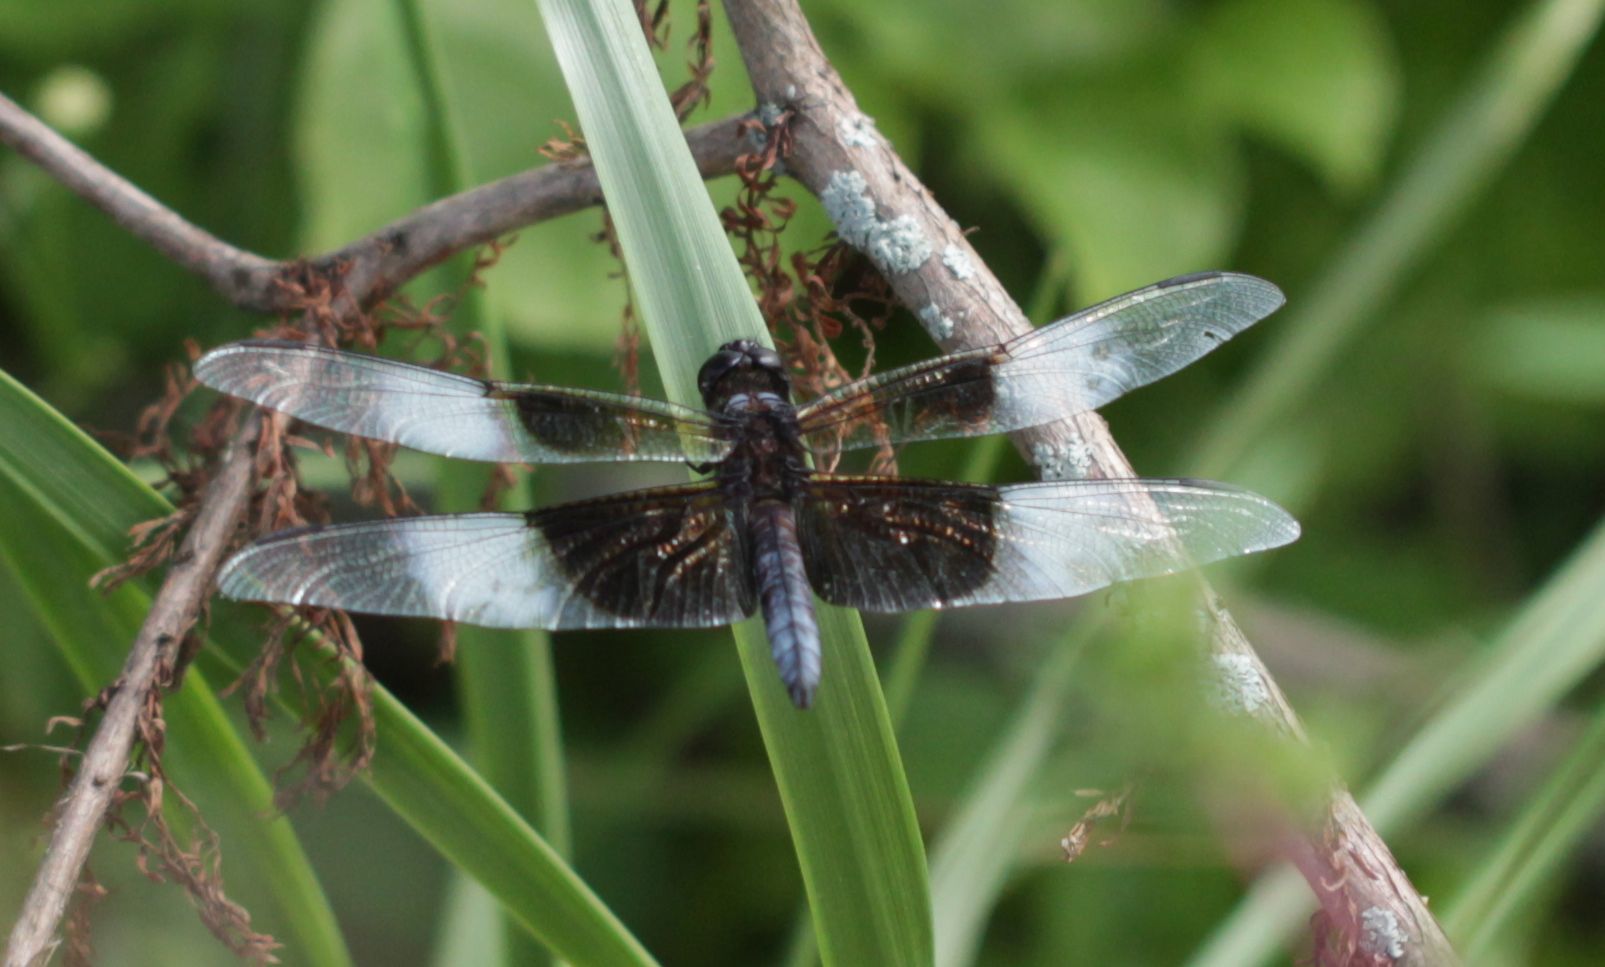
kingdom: Animalia
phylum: Arthropoda
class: Insecta
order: Odonata
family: Libellulidae
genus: Libellula
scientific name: Libellula luctuosa
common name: Widow skimmer
